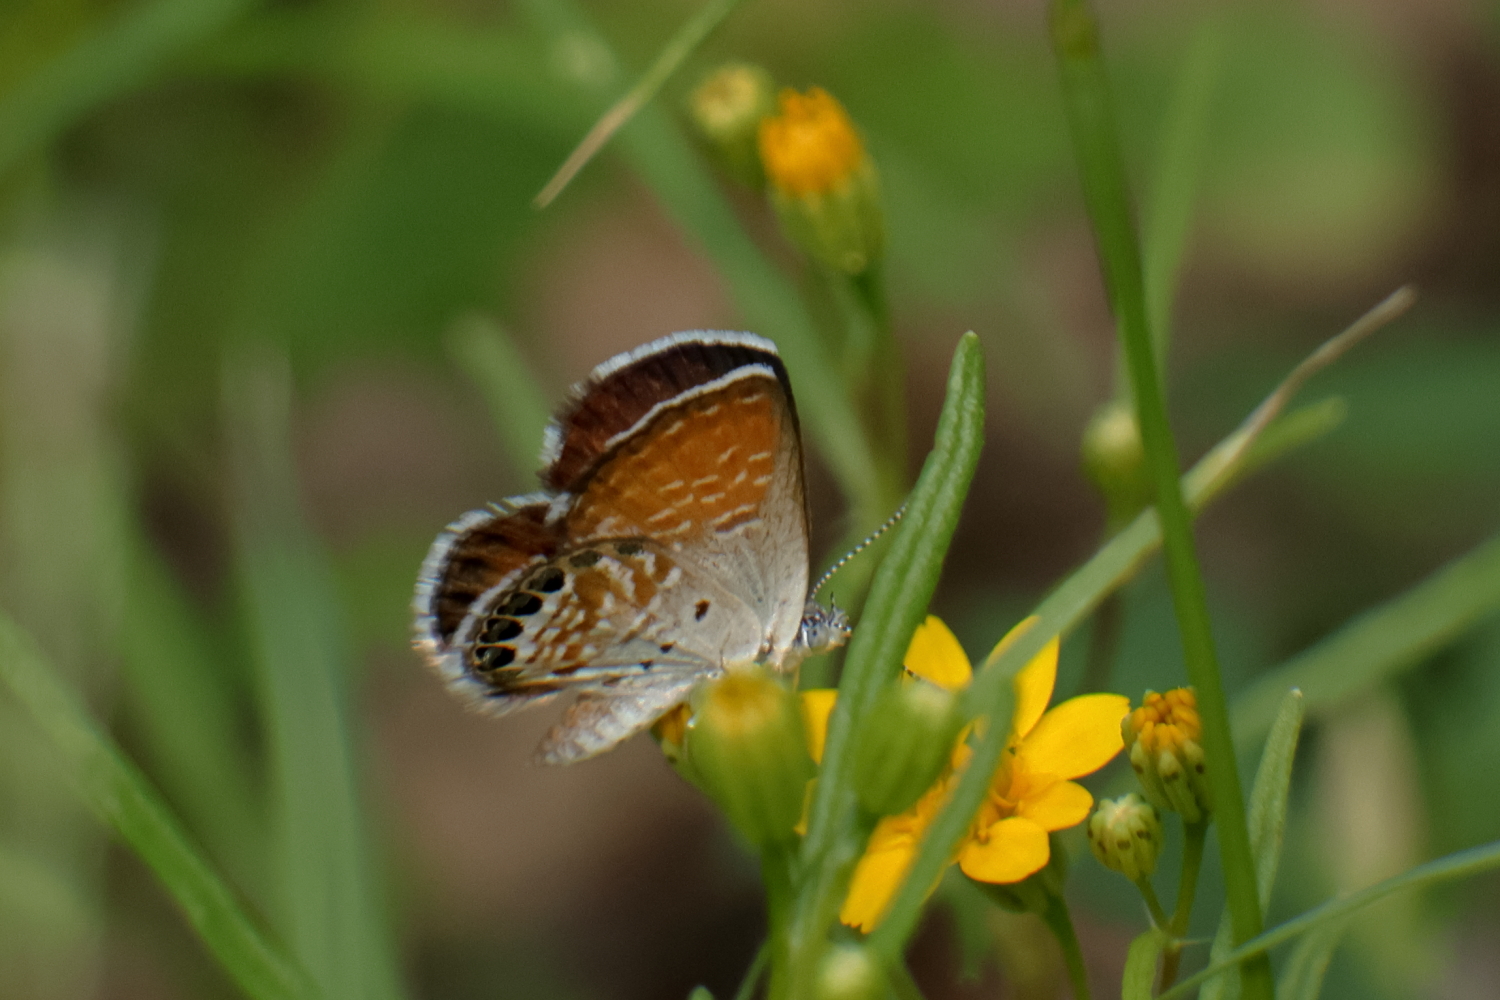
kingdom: Animalia
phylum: Arthropoda
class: Insecta
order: Lepidoptera
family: Lycaenidae
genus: Brephidium
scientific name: Brephidium exilis
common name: Pygmy blue
